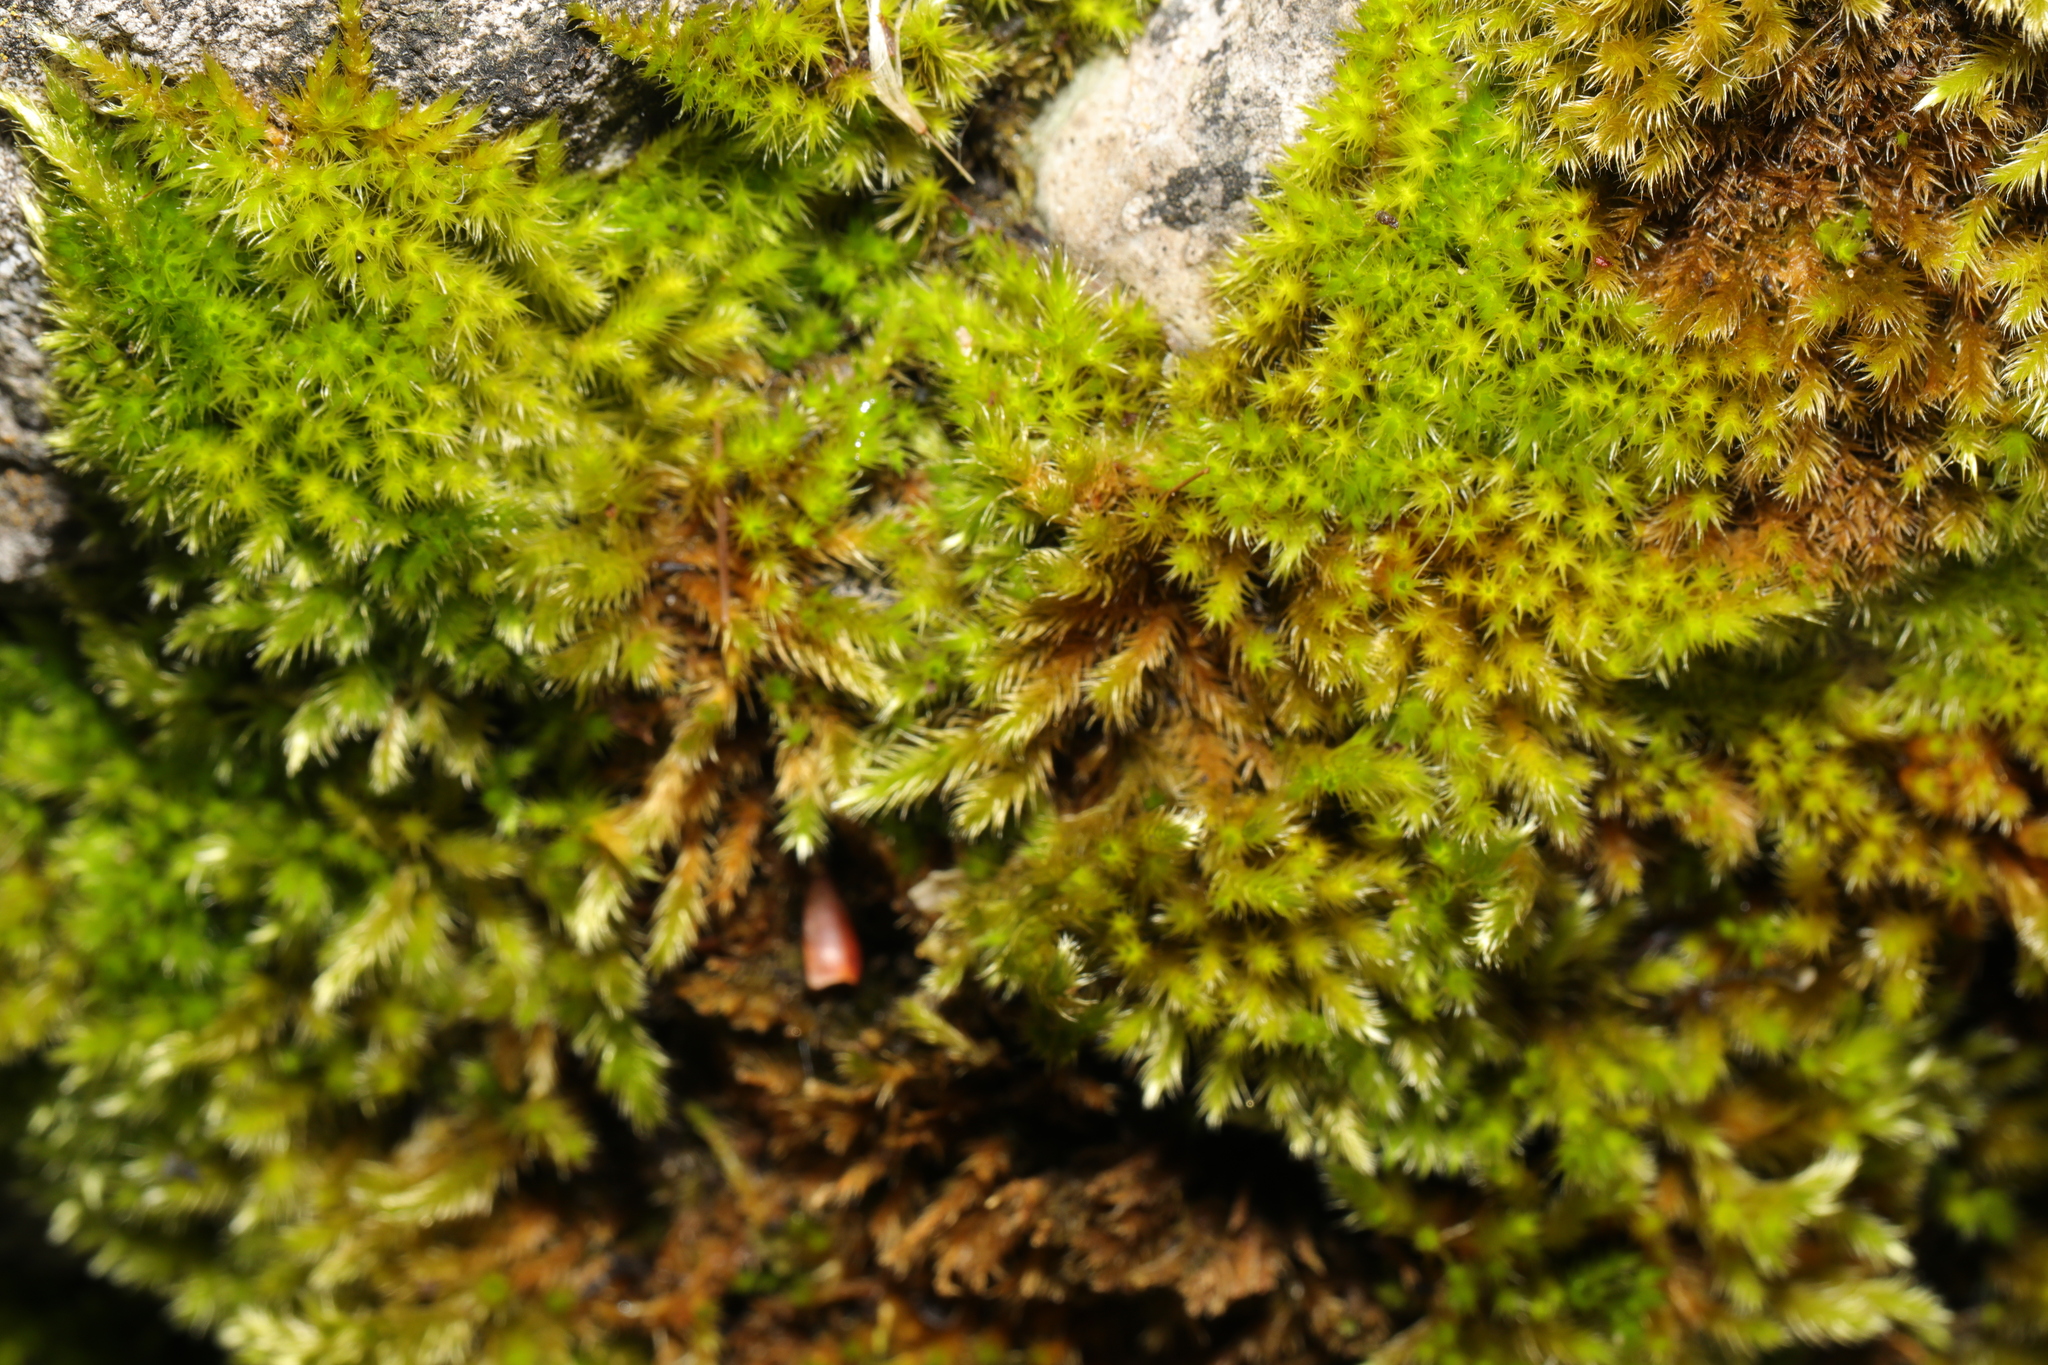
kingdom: Plantae
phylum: Bryophyta
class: Bryopsida
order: Hypnales
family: Brachytheciaceae
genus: Homalothecium
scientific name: Homalothecium sericeum
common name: Silky wall feather-moss
